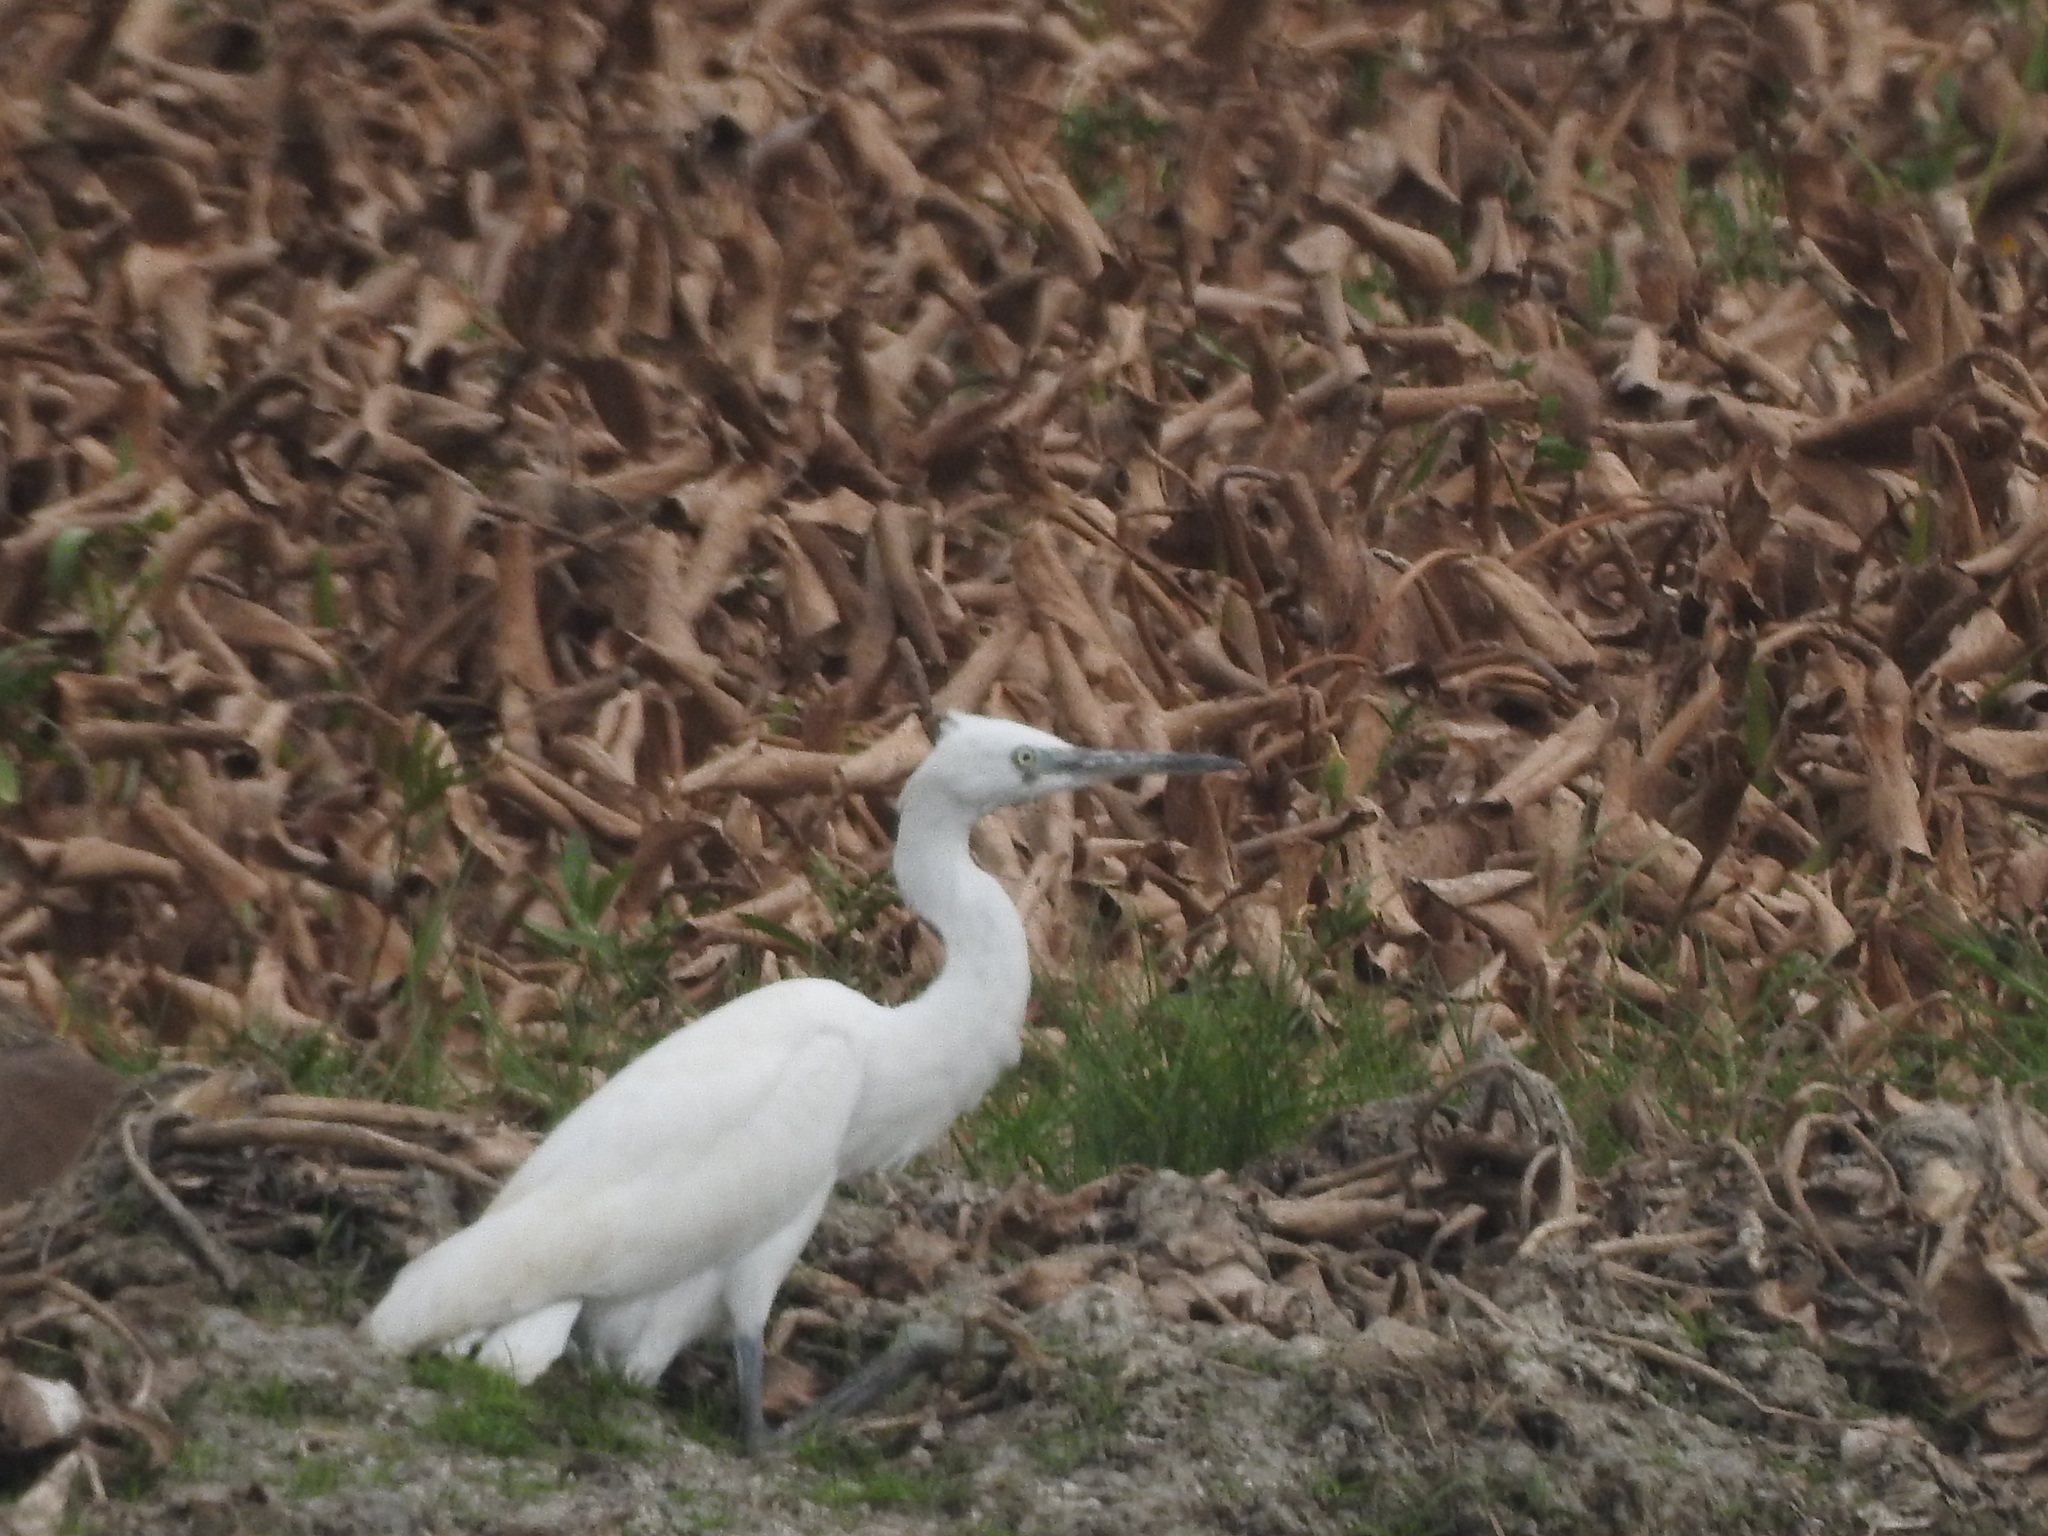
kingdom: Animalia
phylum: Chordata
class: Aves
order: Pelecaniformes
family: Ardeidae
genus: Egretta
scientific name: Egretta garzetta
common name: Little egret
